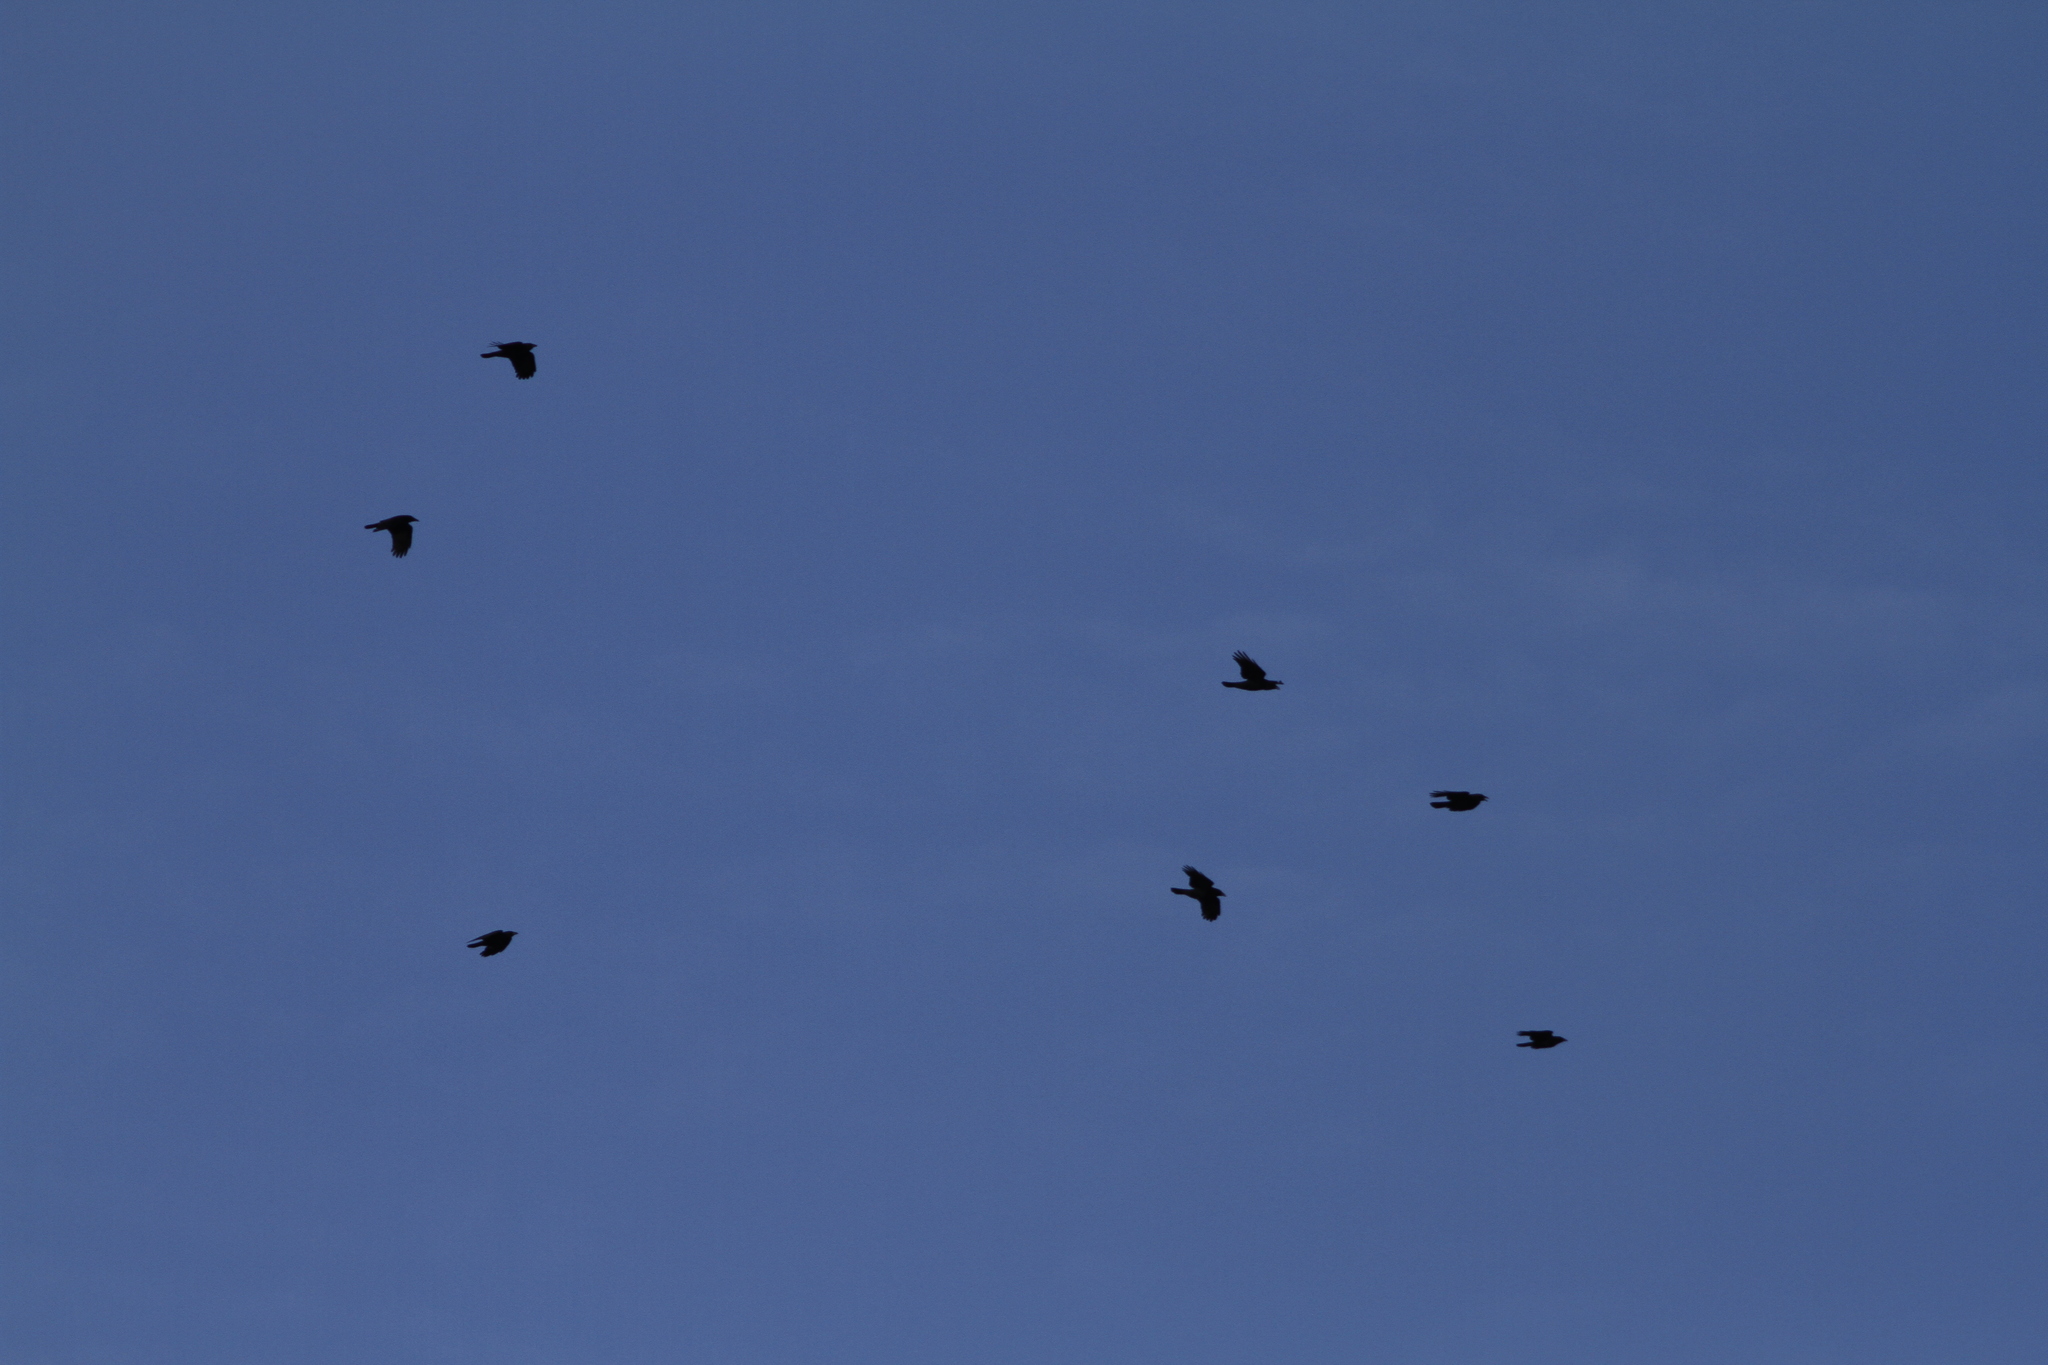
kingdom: Animalia
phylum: Chordata
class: Aves
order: Passeriformes
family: Corvidae
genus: Corvus
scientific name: Corvus brachyrhynchos
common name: American crow
